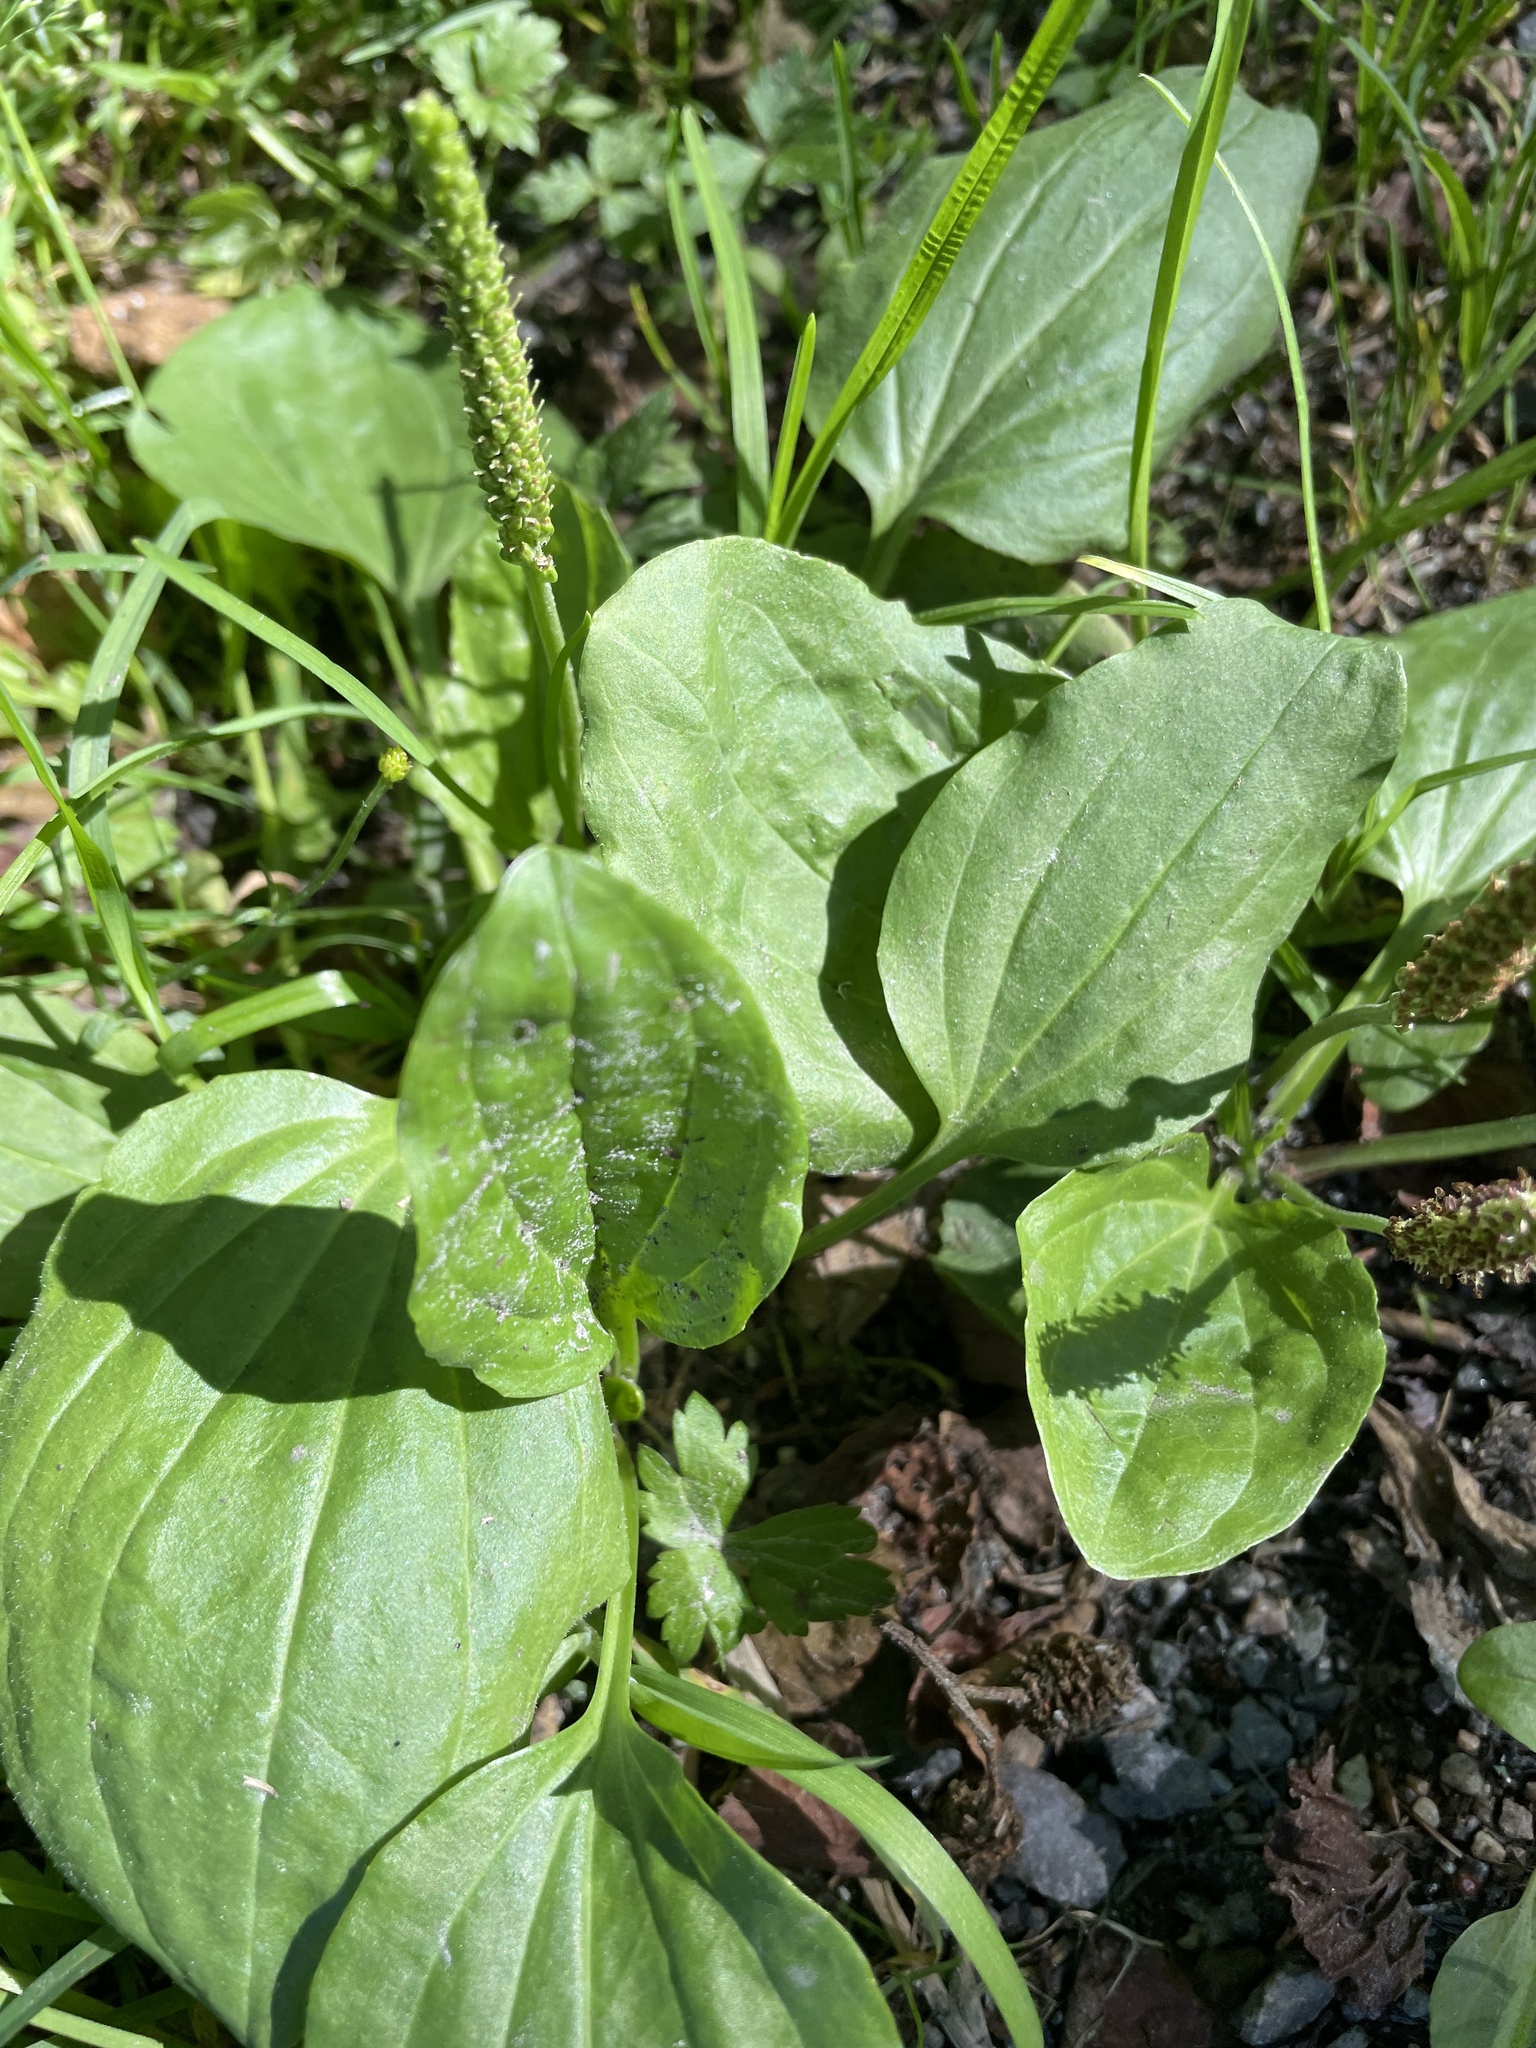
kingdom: Plantae
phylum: Tracheophyta
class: Magnoliopsida
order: Lamiales
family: Plantaginaceae
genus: Plantago
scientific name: Plantago major
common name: Common plantain
